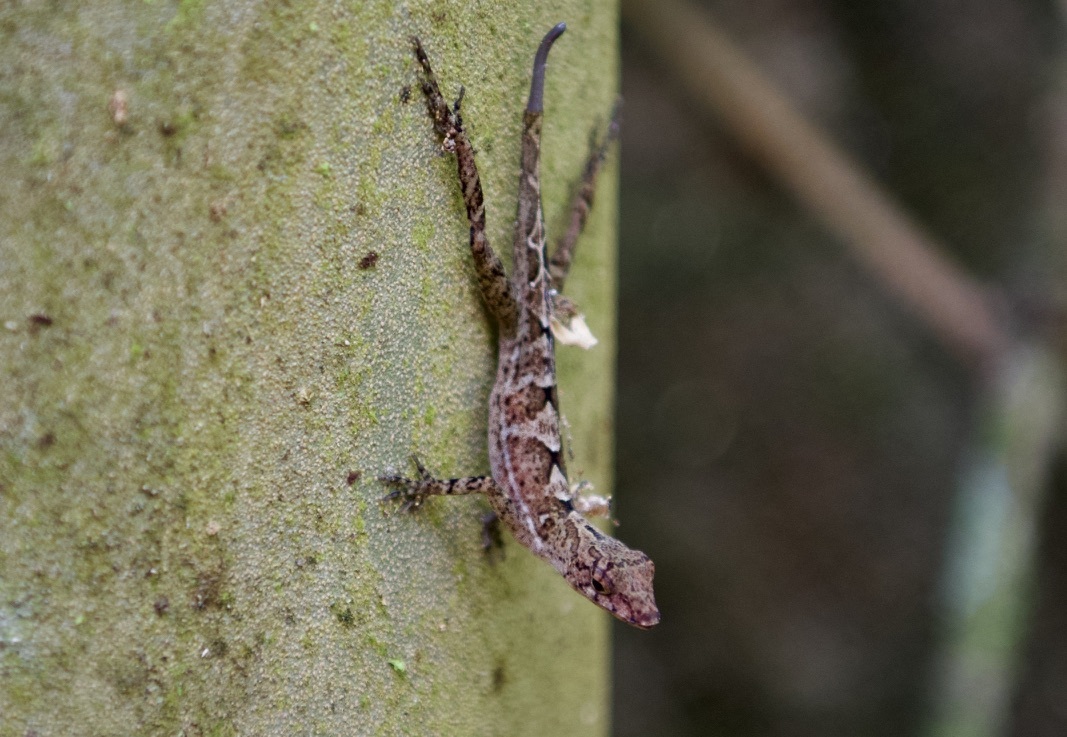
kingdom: Animalia
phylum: Chordata
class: Squamata
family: Dactyloidae
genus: Anolis
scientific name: Anolis osa
